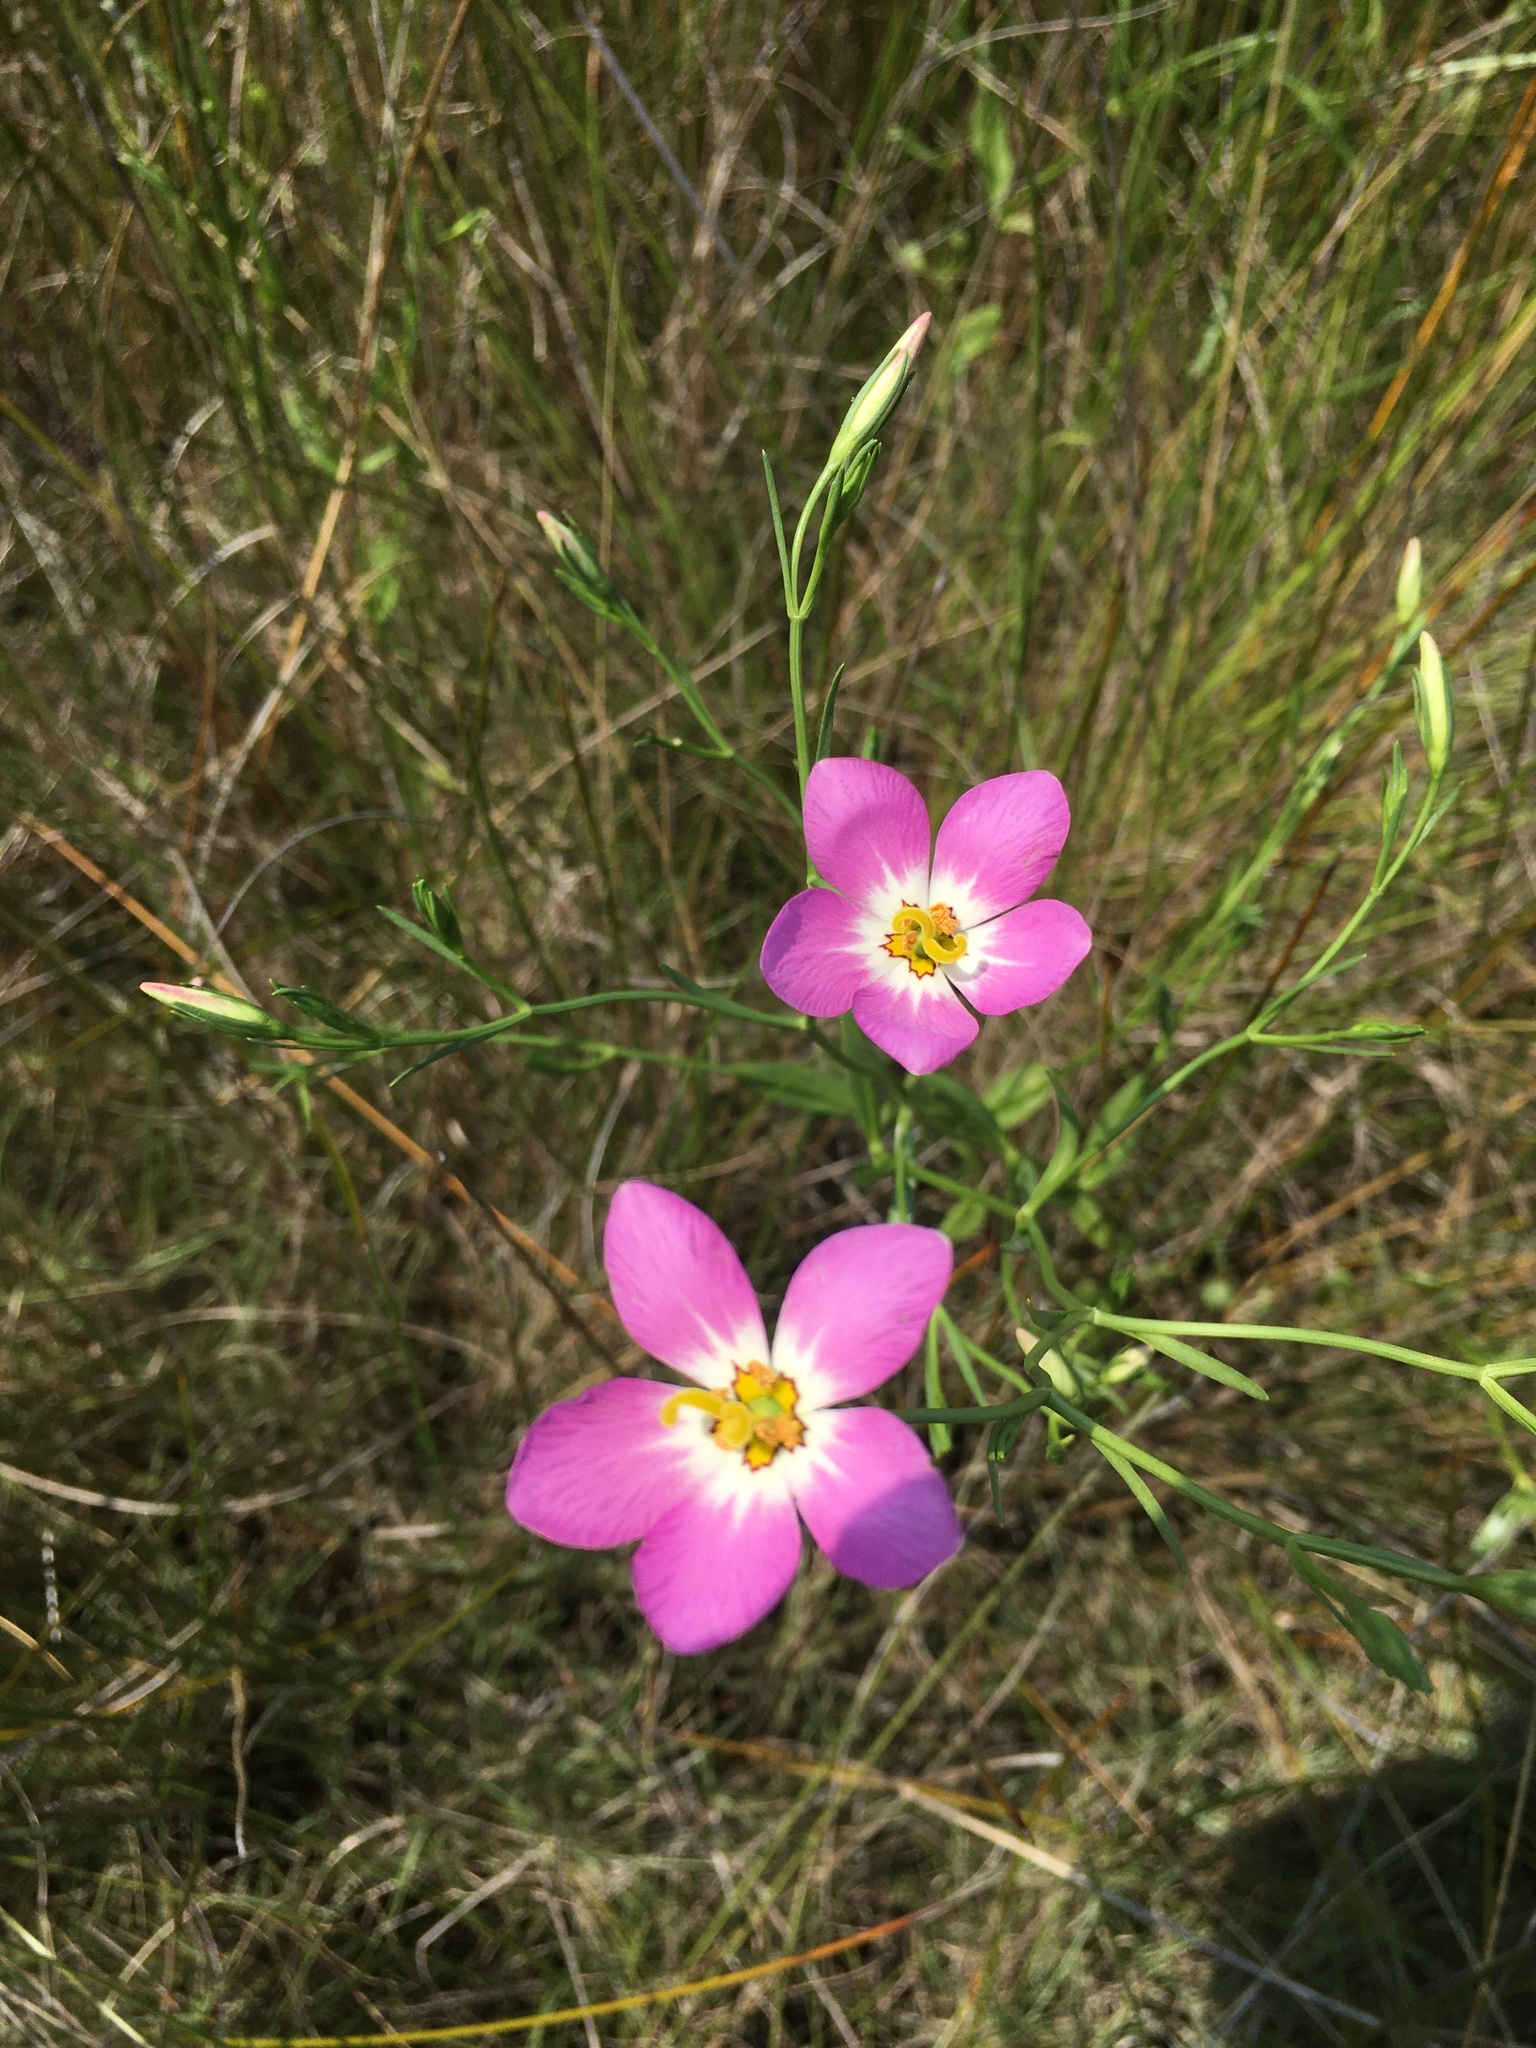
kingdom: Plantae
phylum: Tracheophyta
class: Magnoliopsida
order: Gentianales
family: Gentianaceae
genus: Sabatia
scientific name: Sabatia stellaris
